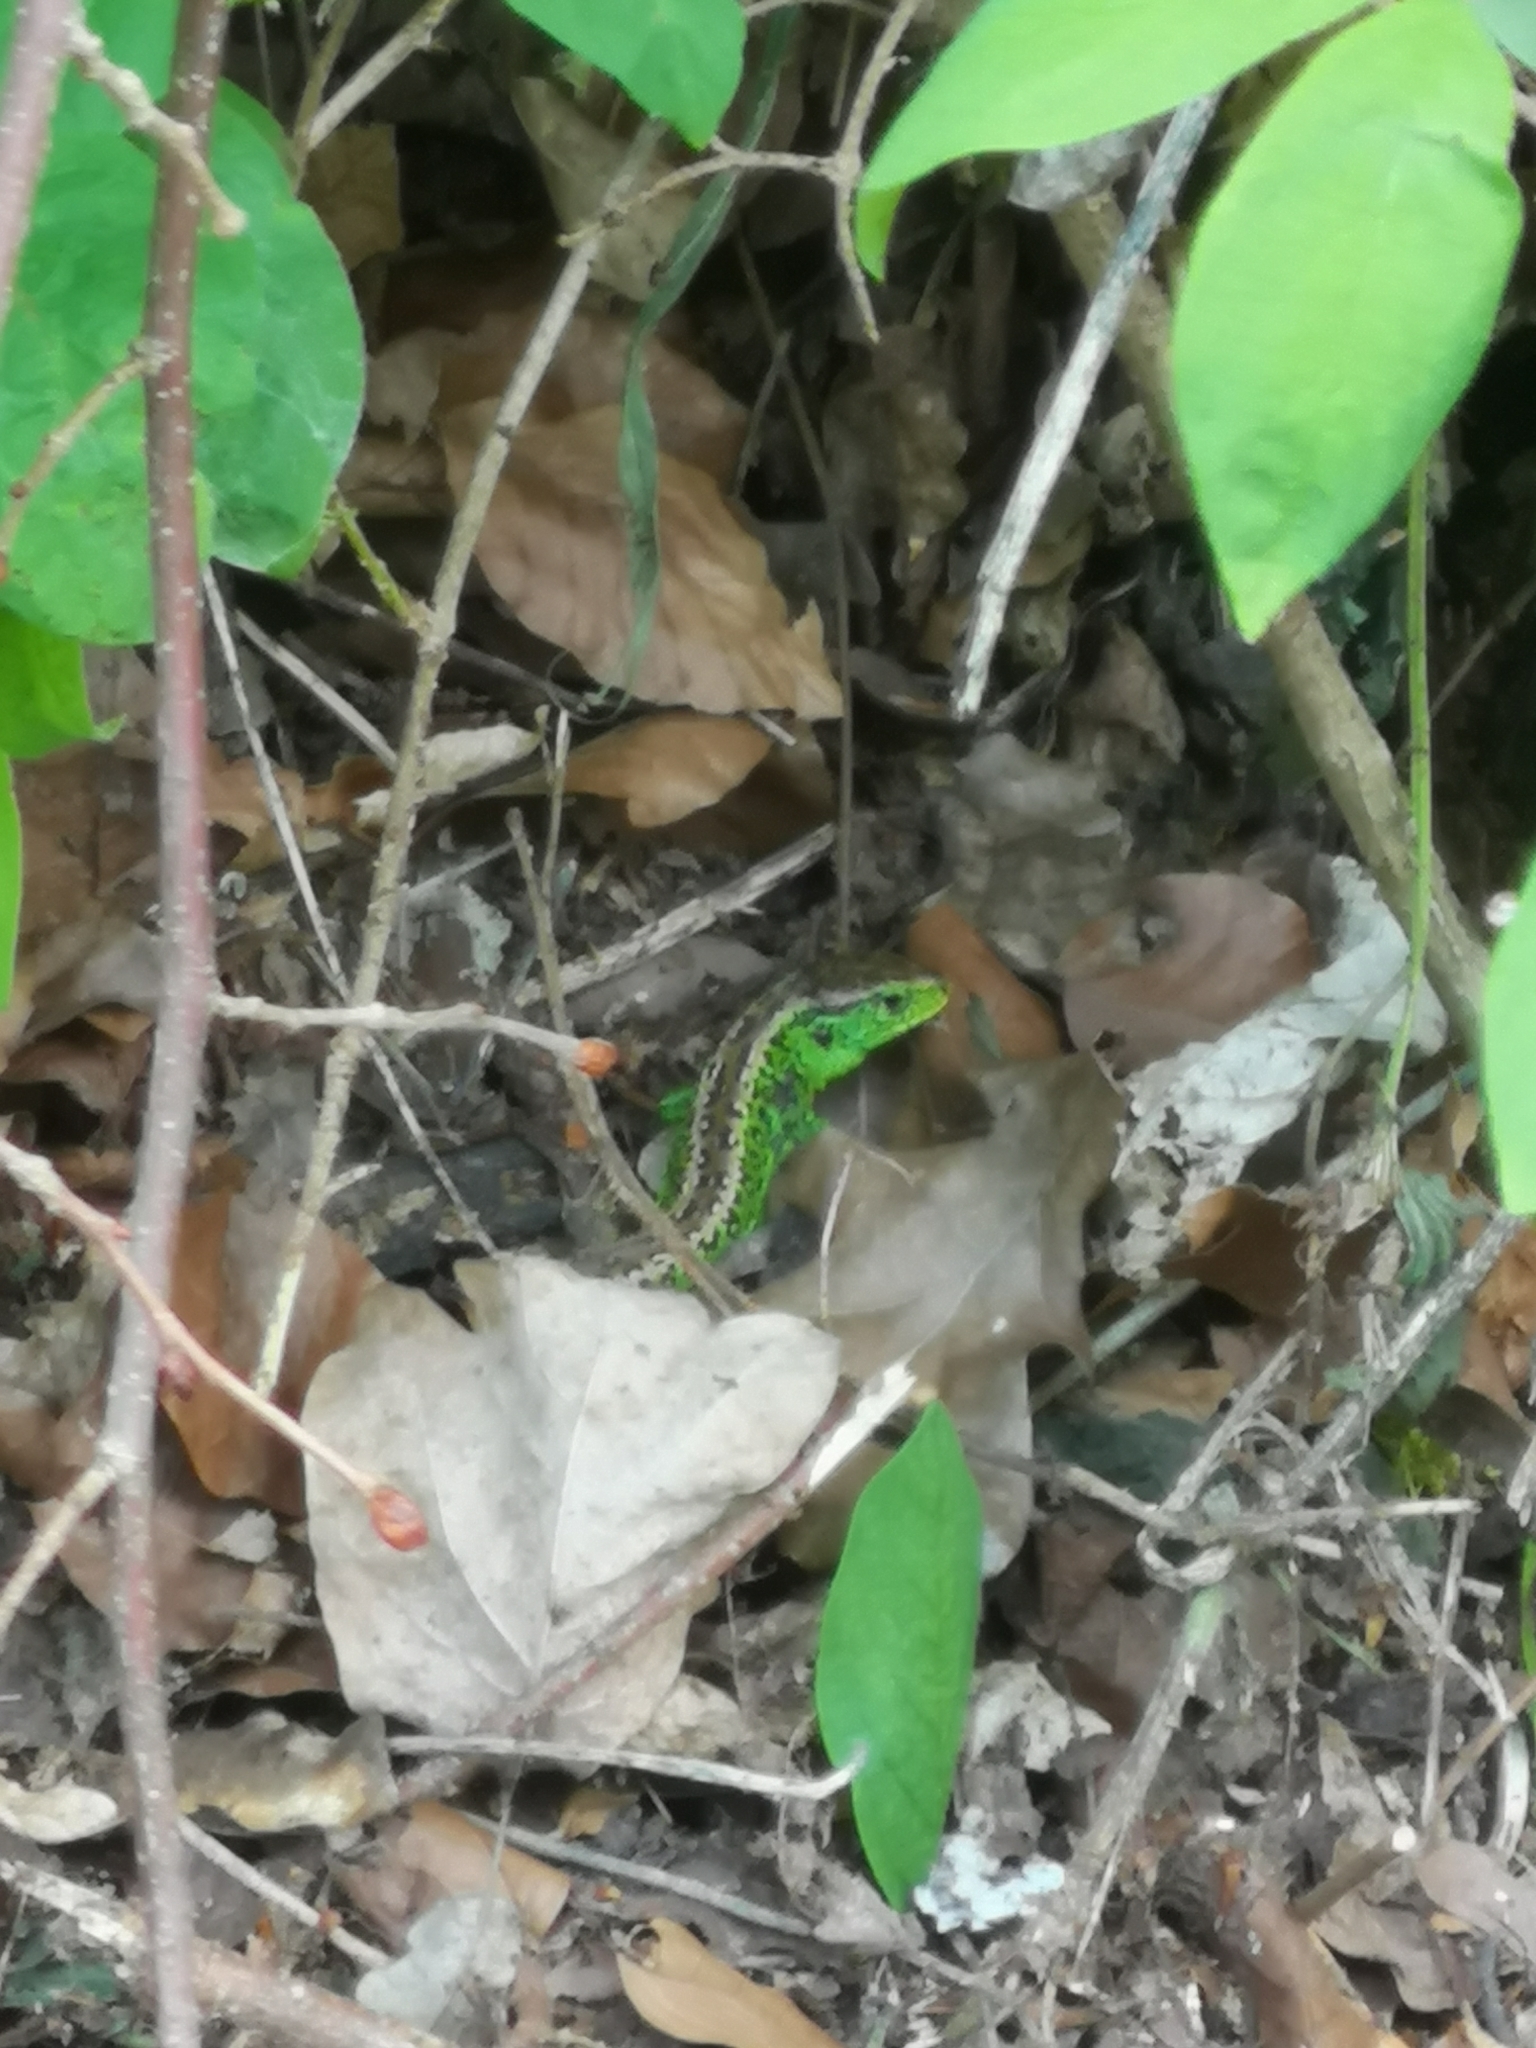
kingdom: Animalia
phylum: Chordata
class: Squamata
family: Lacertidae
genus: Lacerta
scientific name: Lacerta agilis
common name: Sand lizard
